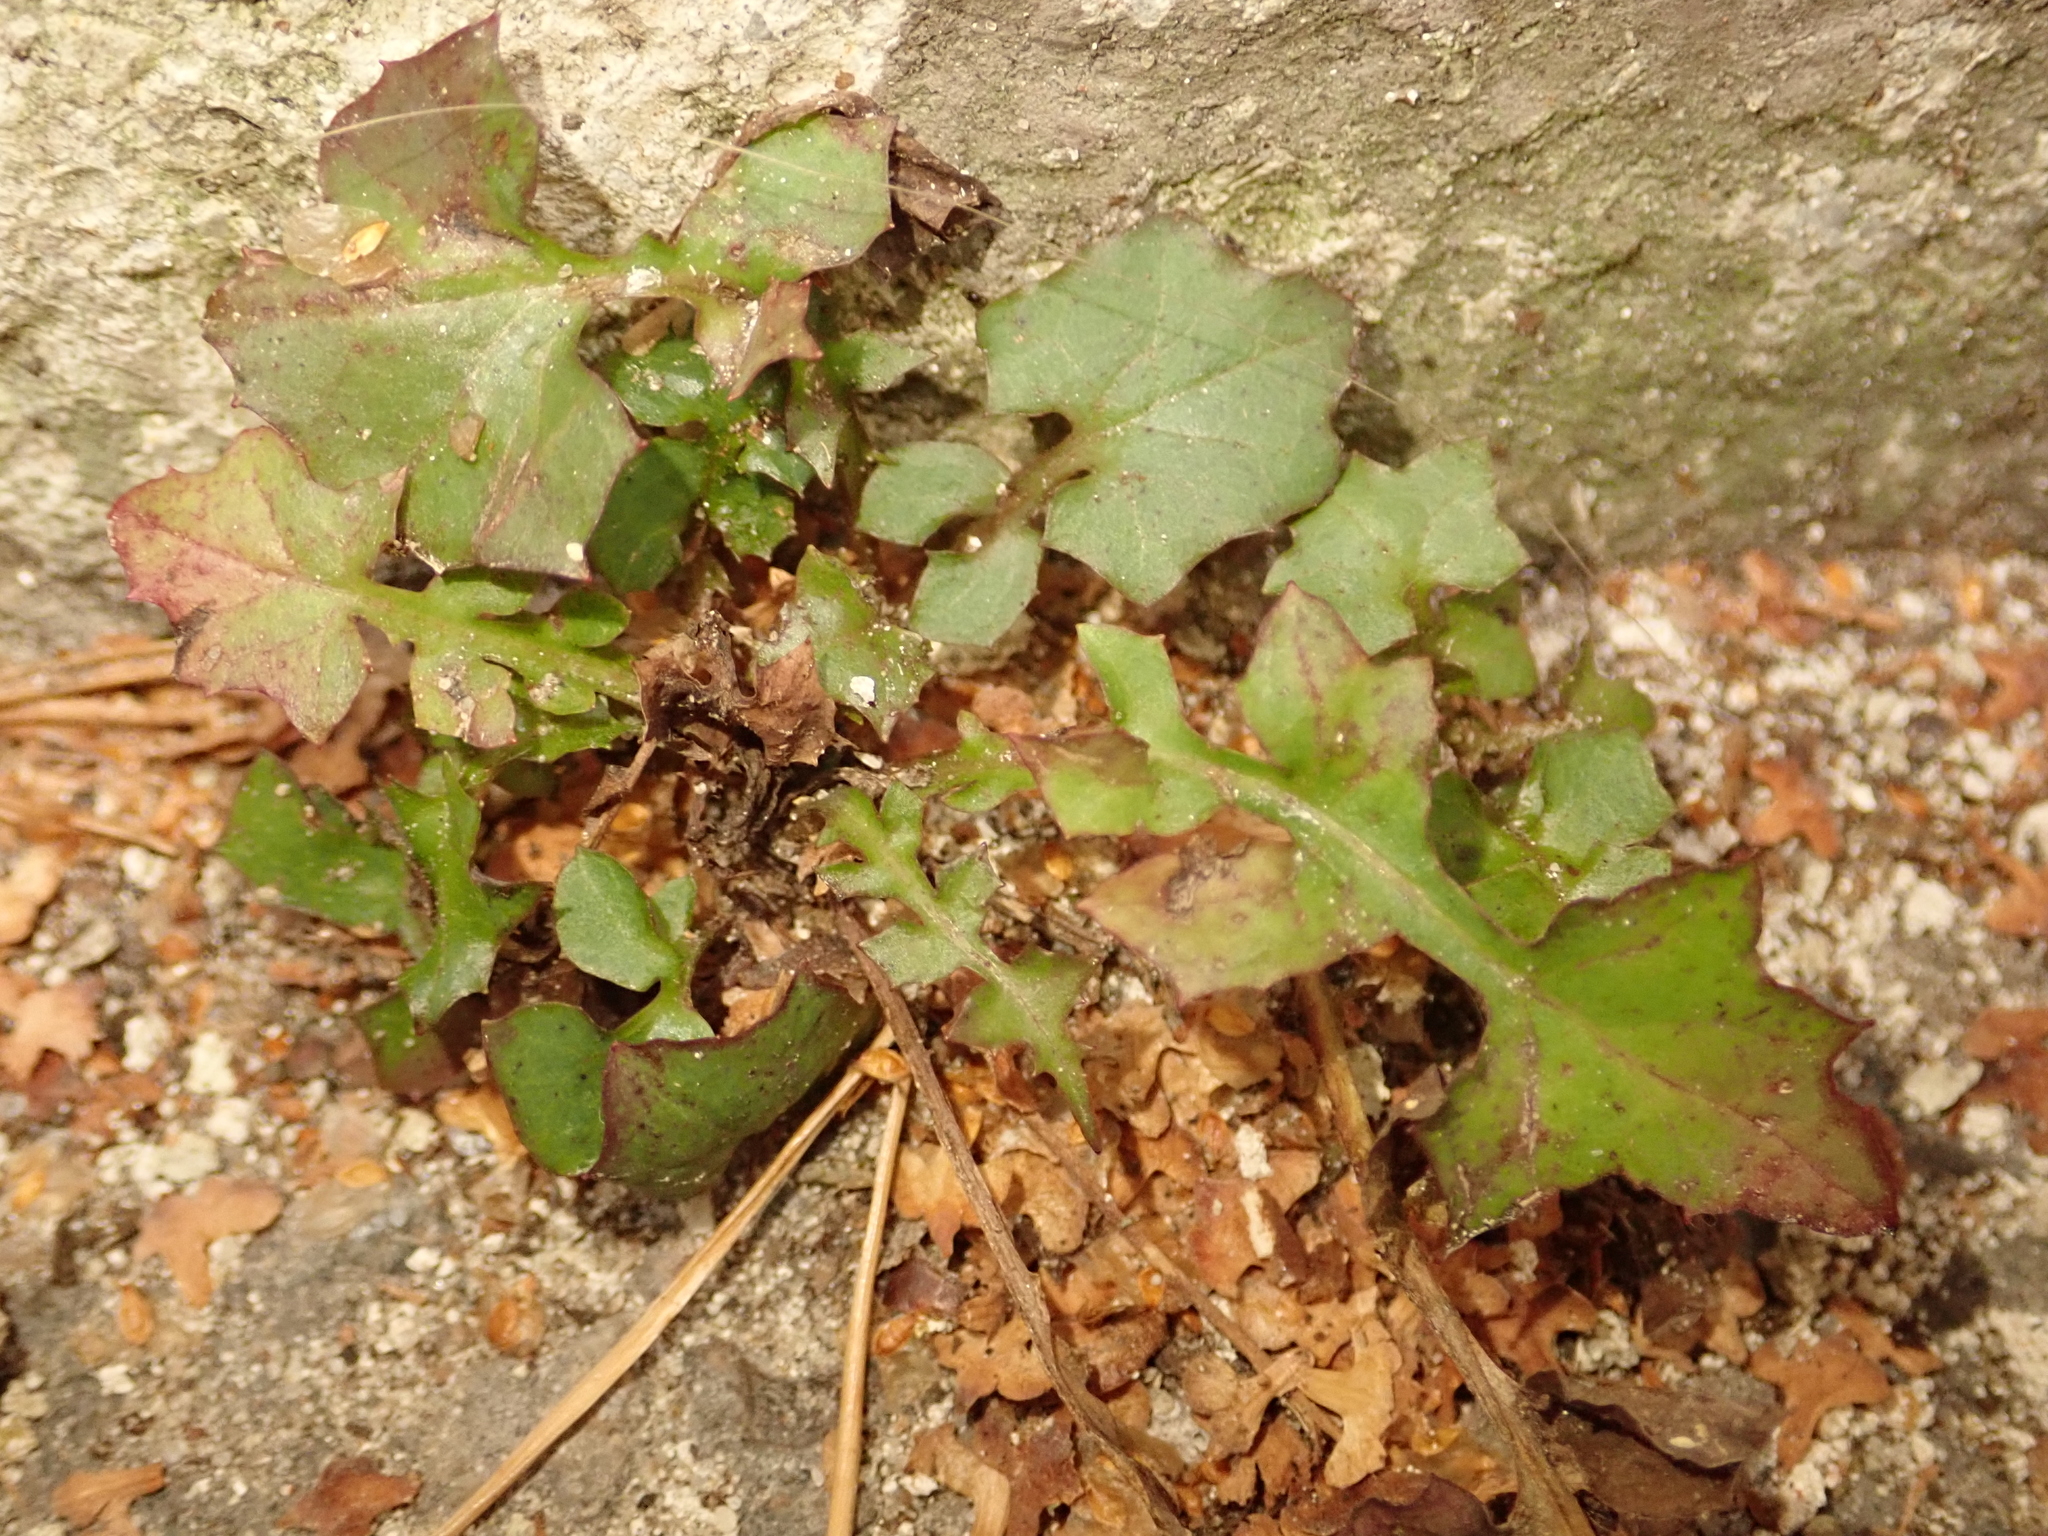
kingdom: Plantae
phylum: Tracheophyta
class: Magnoliopsida
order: Asterales
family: Asteraceae
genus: Mycelis
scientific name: Mycelis muralis
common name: Wall lettuce
